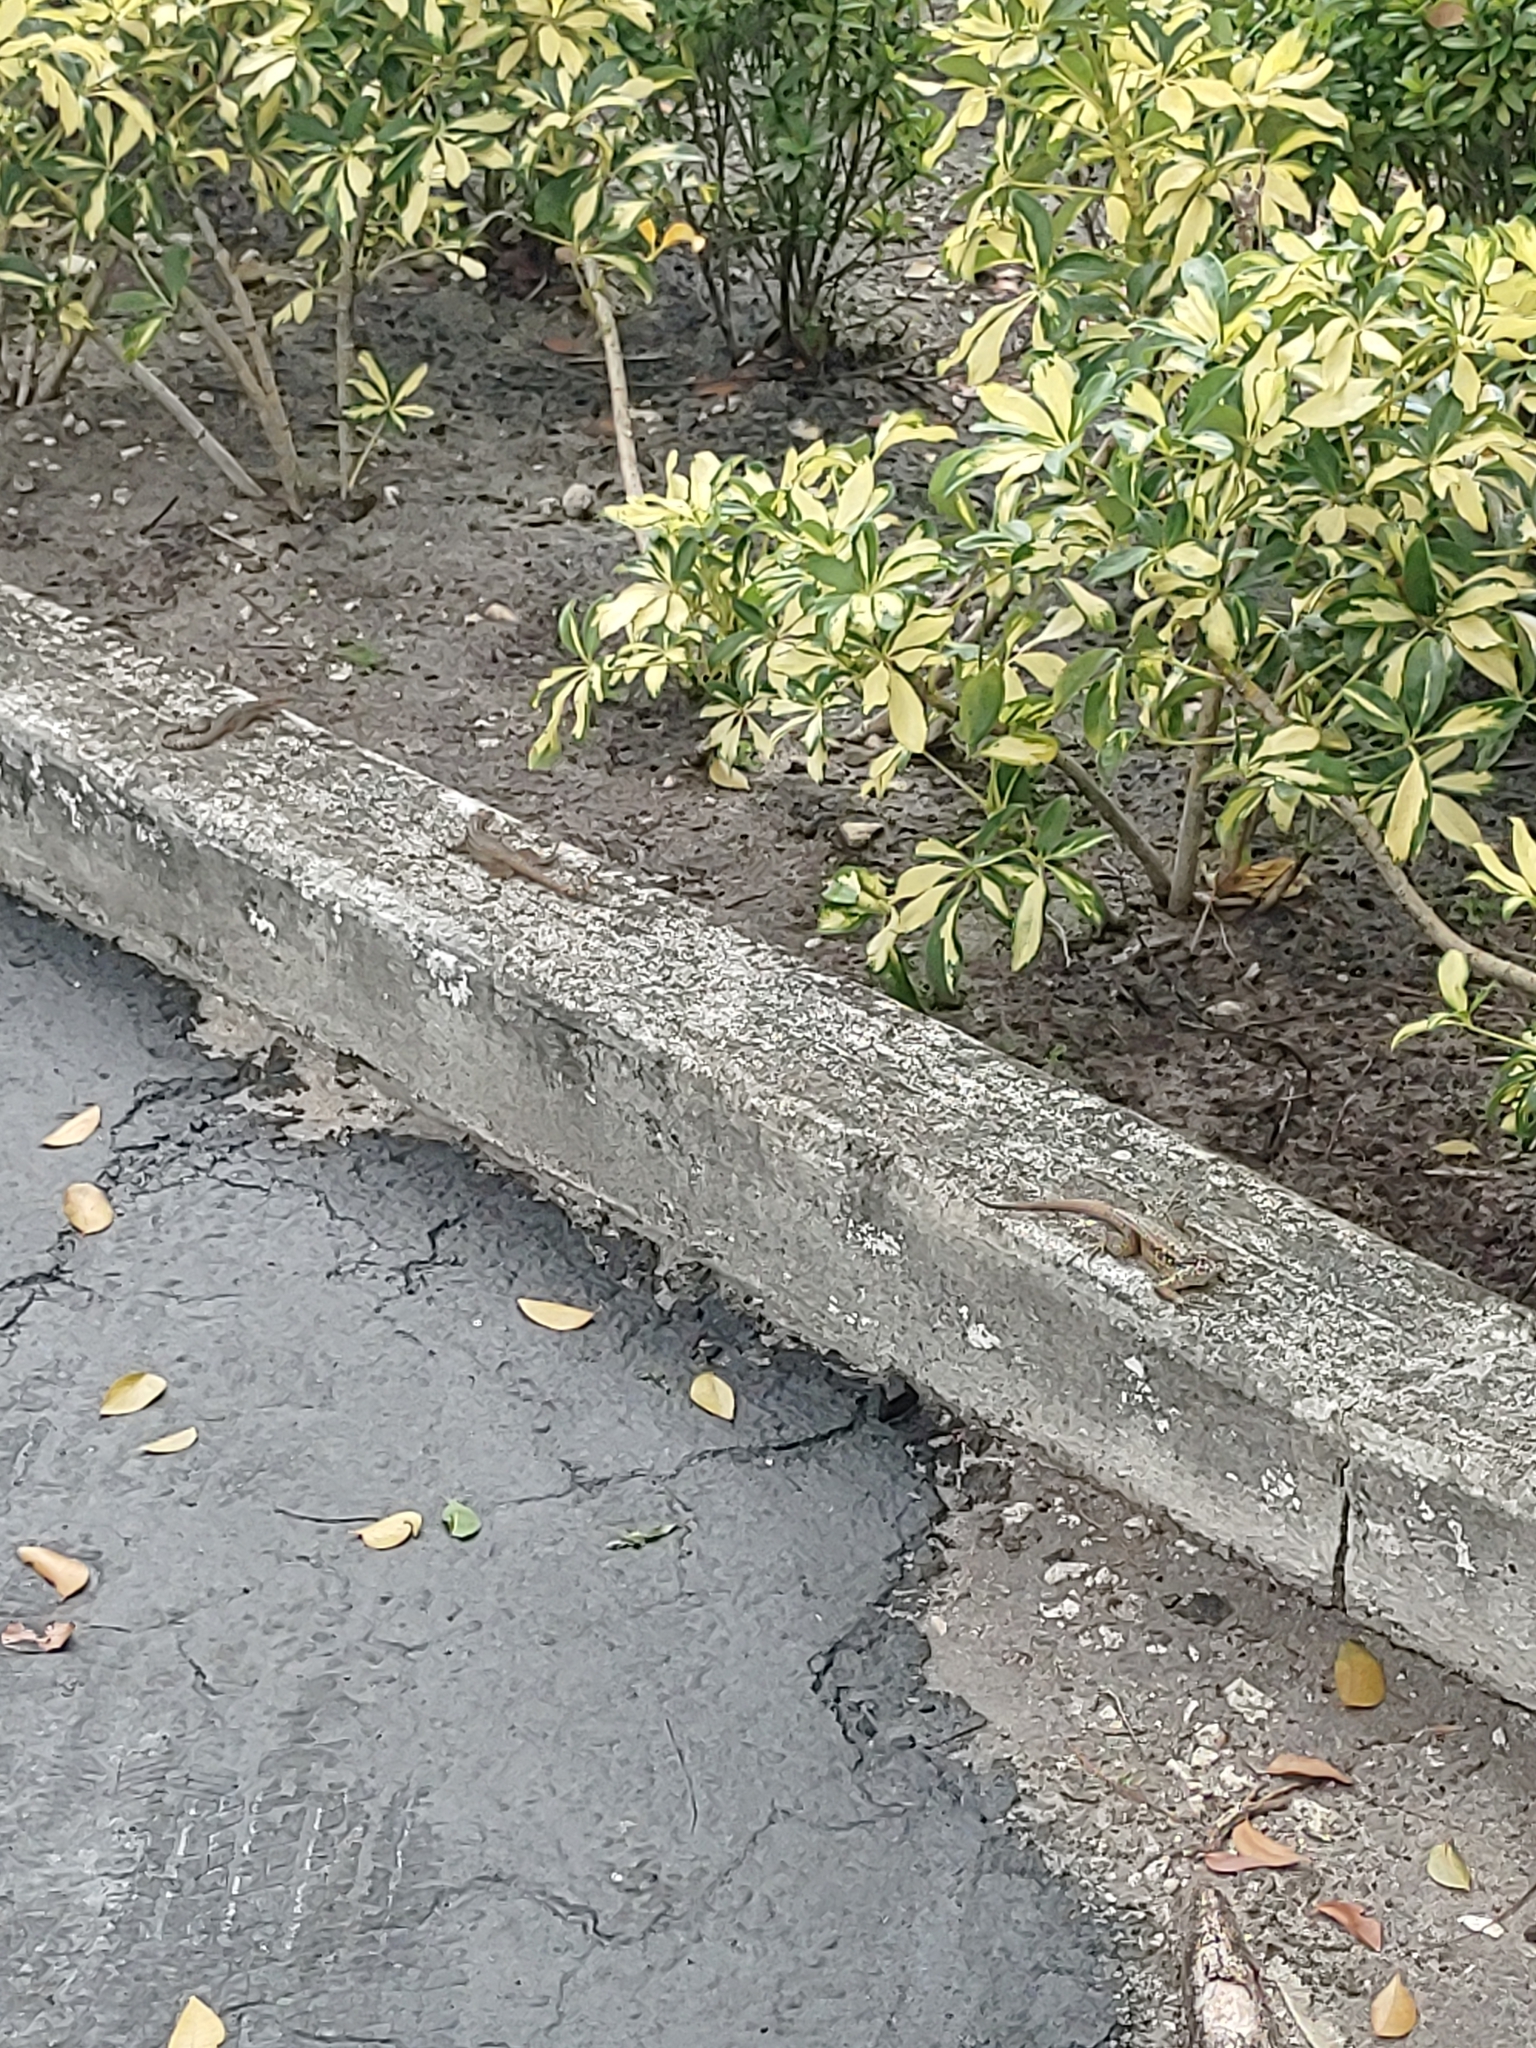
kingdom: Animalia
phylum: Chordata
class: Squamata
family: Leiocephalidae
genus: Leiocephalus
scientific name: Leiocephalus carinatus
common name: Northern curly-tailed lizard
